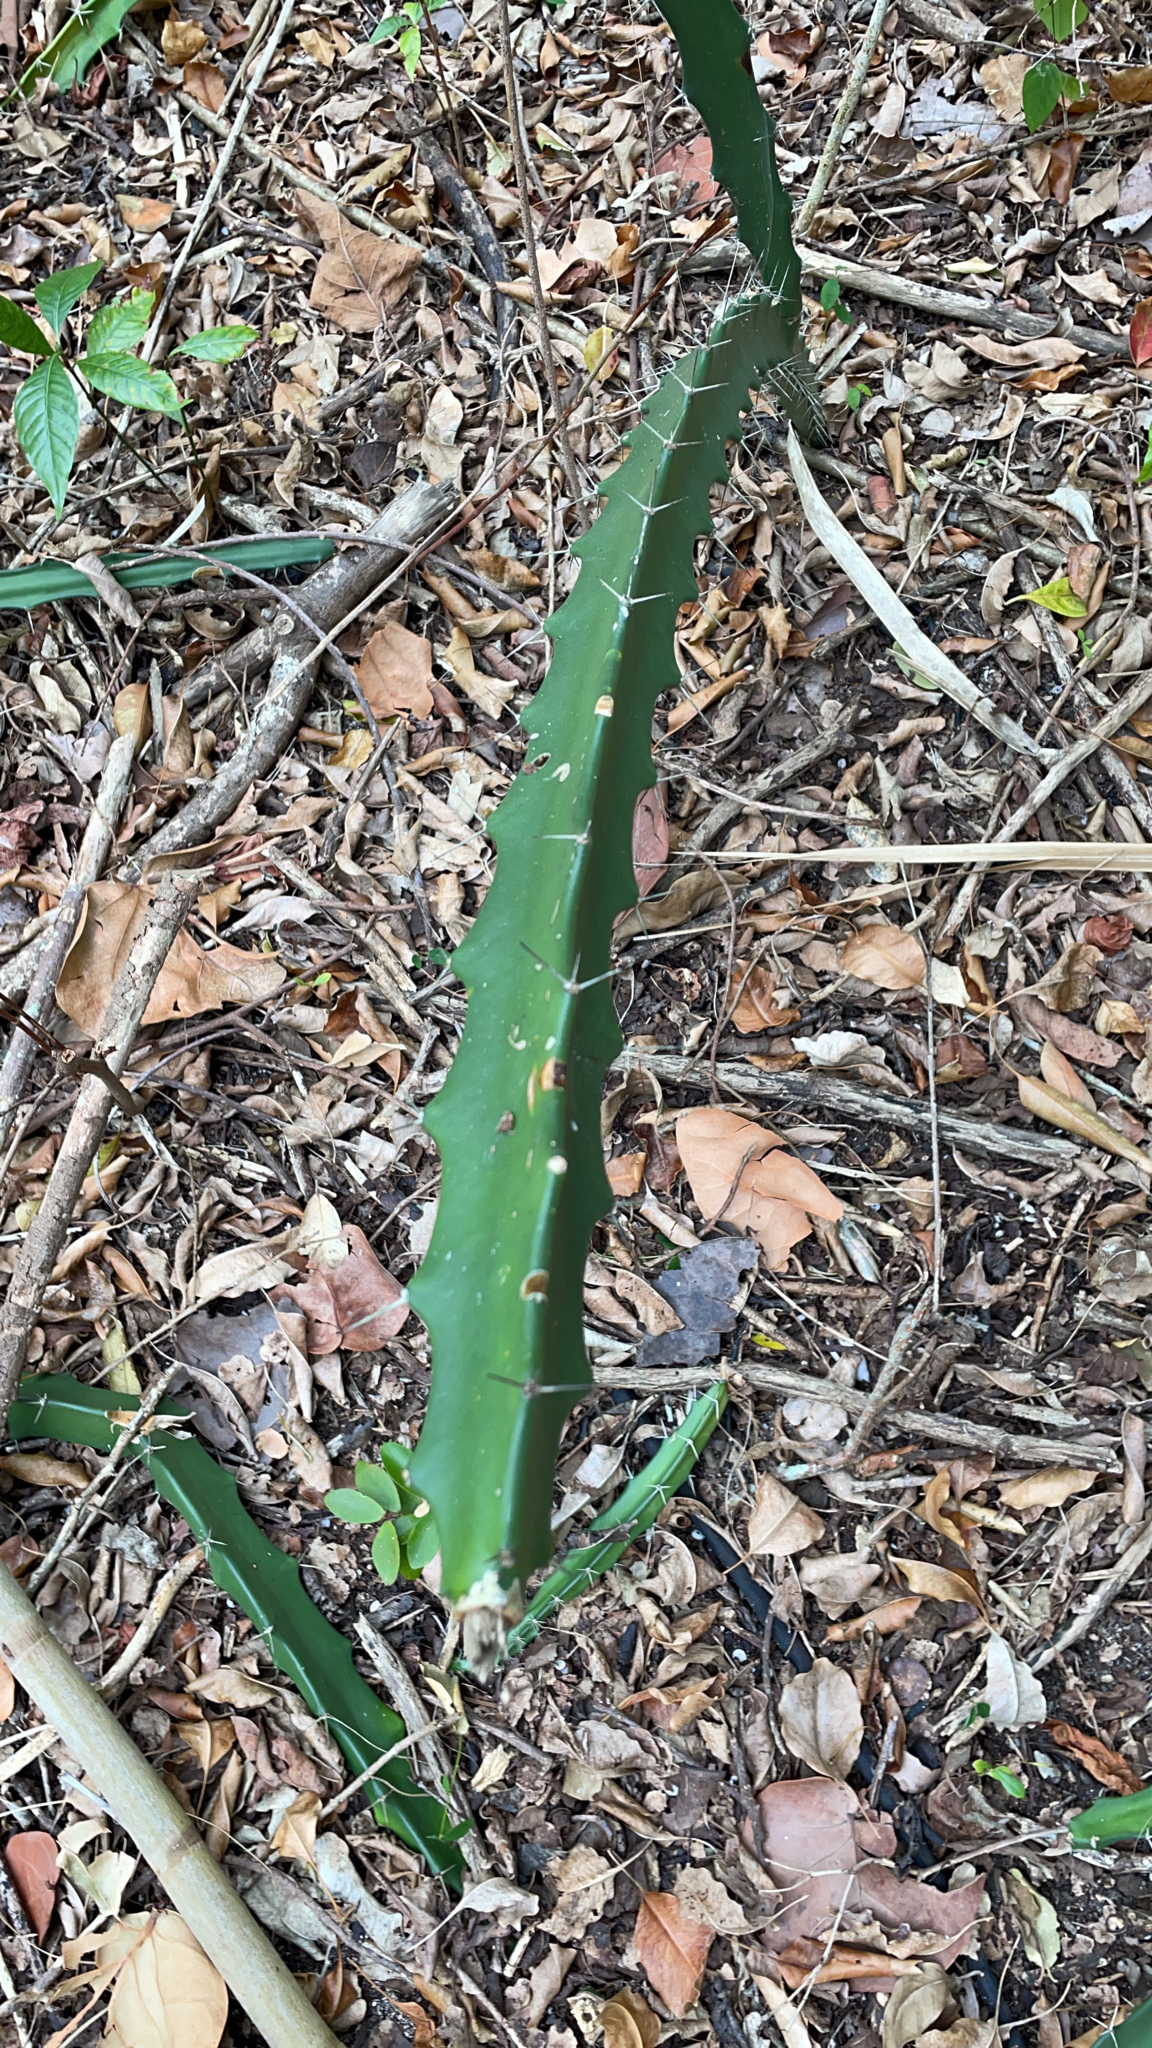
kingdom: Plantae
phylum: Tracheophyta
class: Magnoliopsida
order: Caryophyllales
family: Cactaceae
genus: Acanthocereus
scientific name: Acanthocereus tetragonus
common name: Triangle cactus
